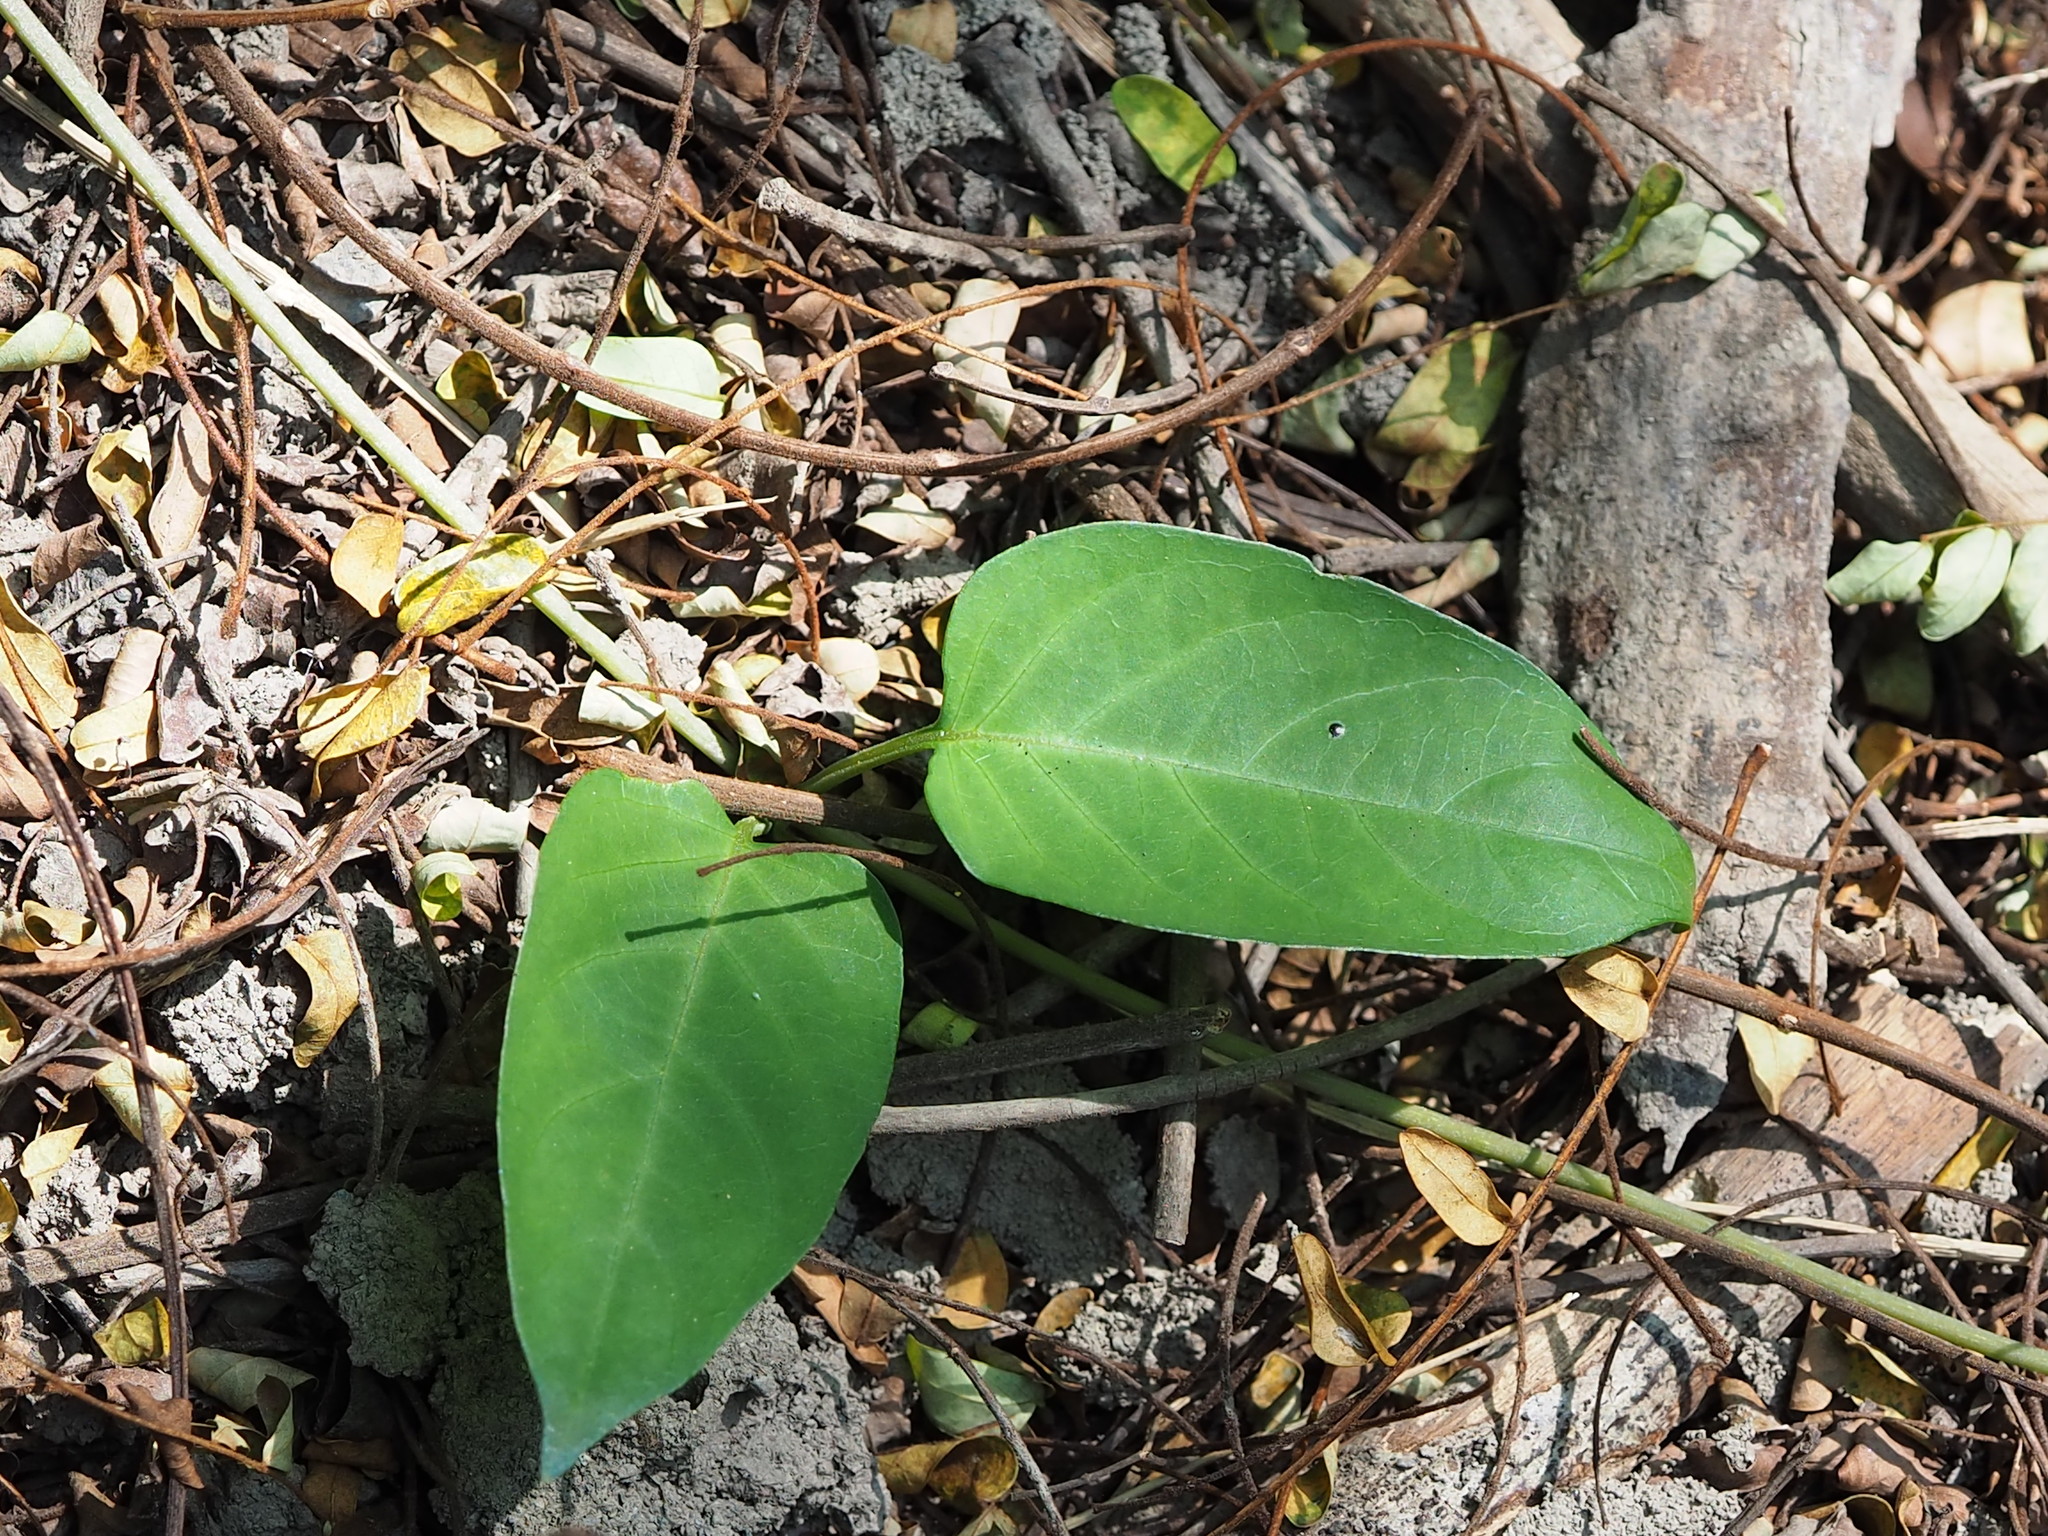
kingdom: Plantae
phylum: Tracheophyta
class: Magnoliopsida
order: Gentianales
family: Rubiaceae
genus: Paederia
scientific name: Paederia foetida
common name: Stinkvine
